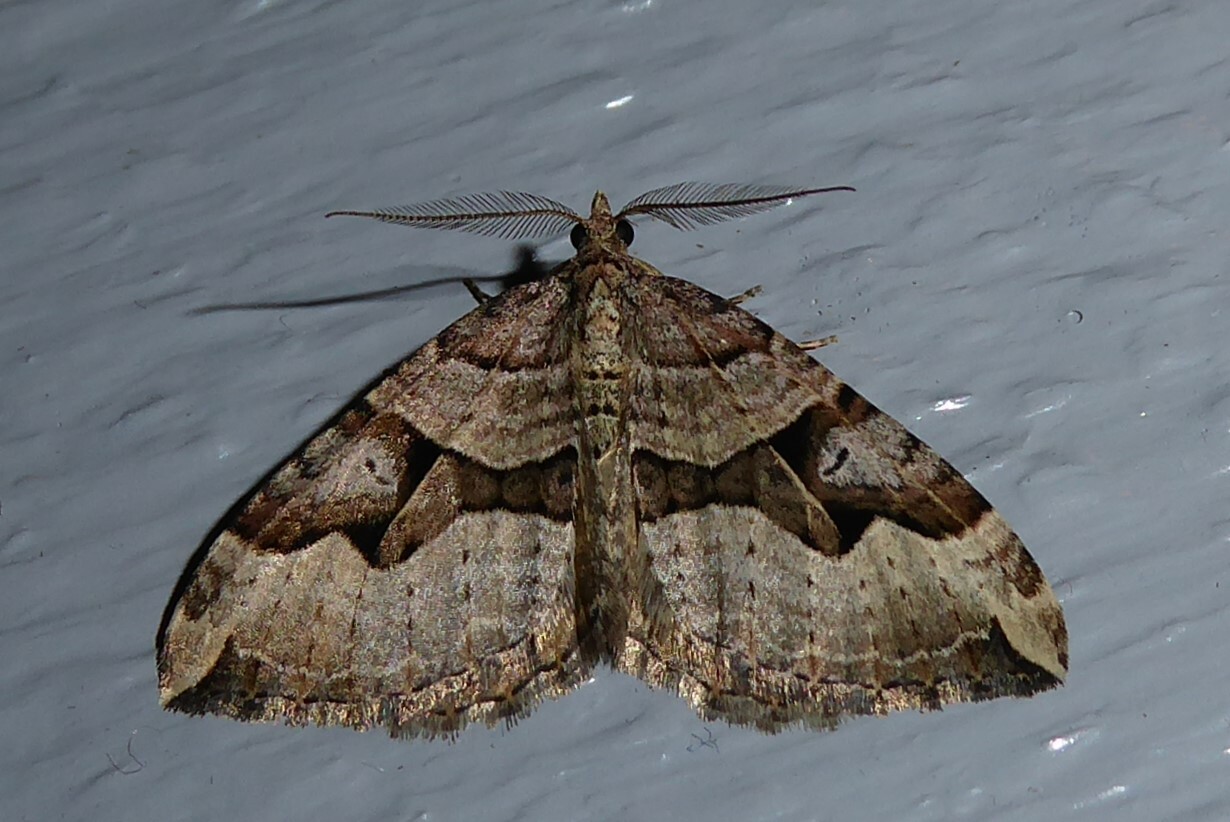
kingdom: Animalia
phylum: Arthropoda
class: Insecta
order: Lepidoptera
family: Geometridae
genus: Xanthorhoe
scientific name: Xanthorhoe semifissata
